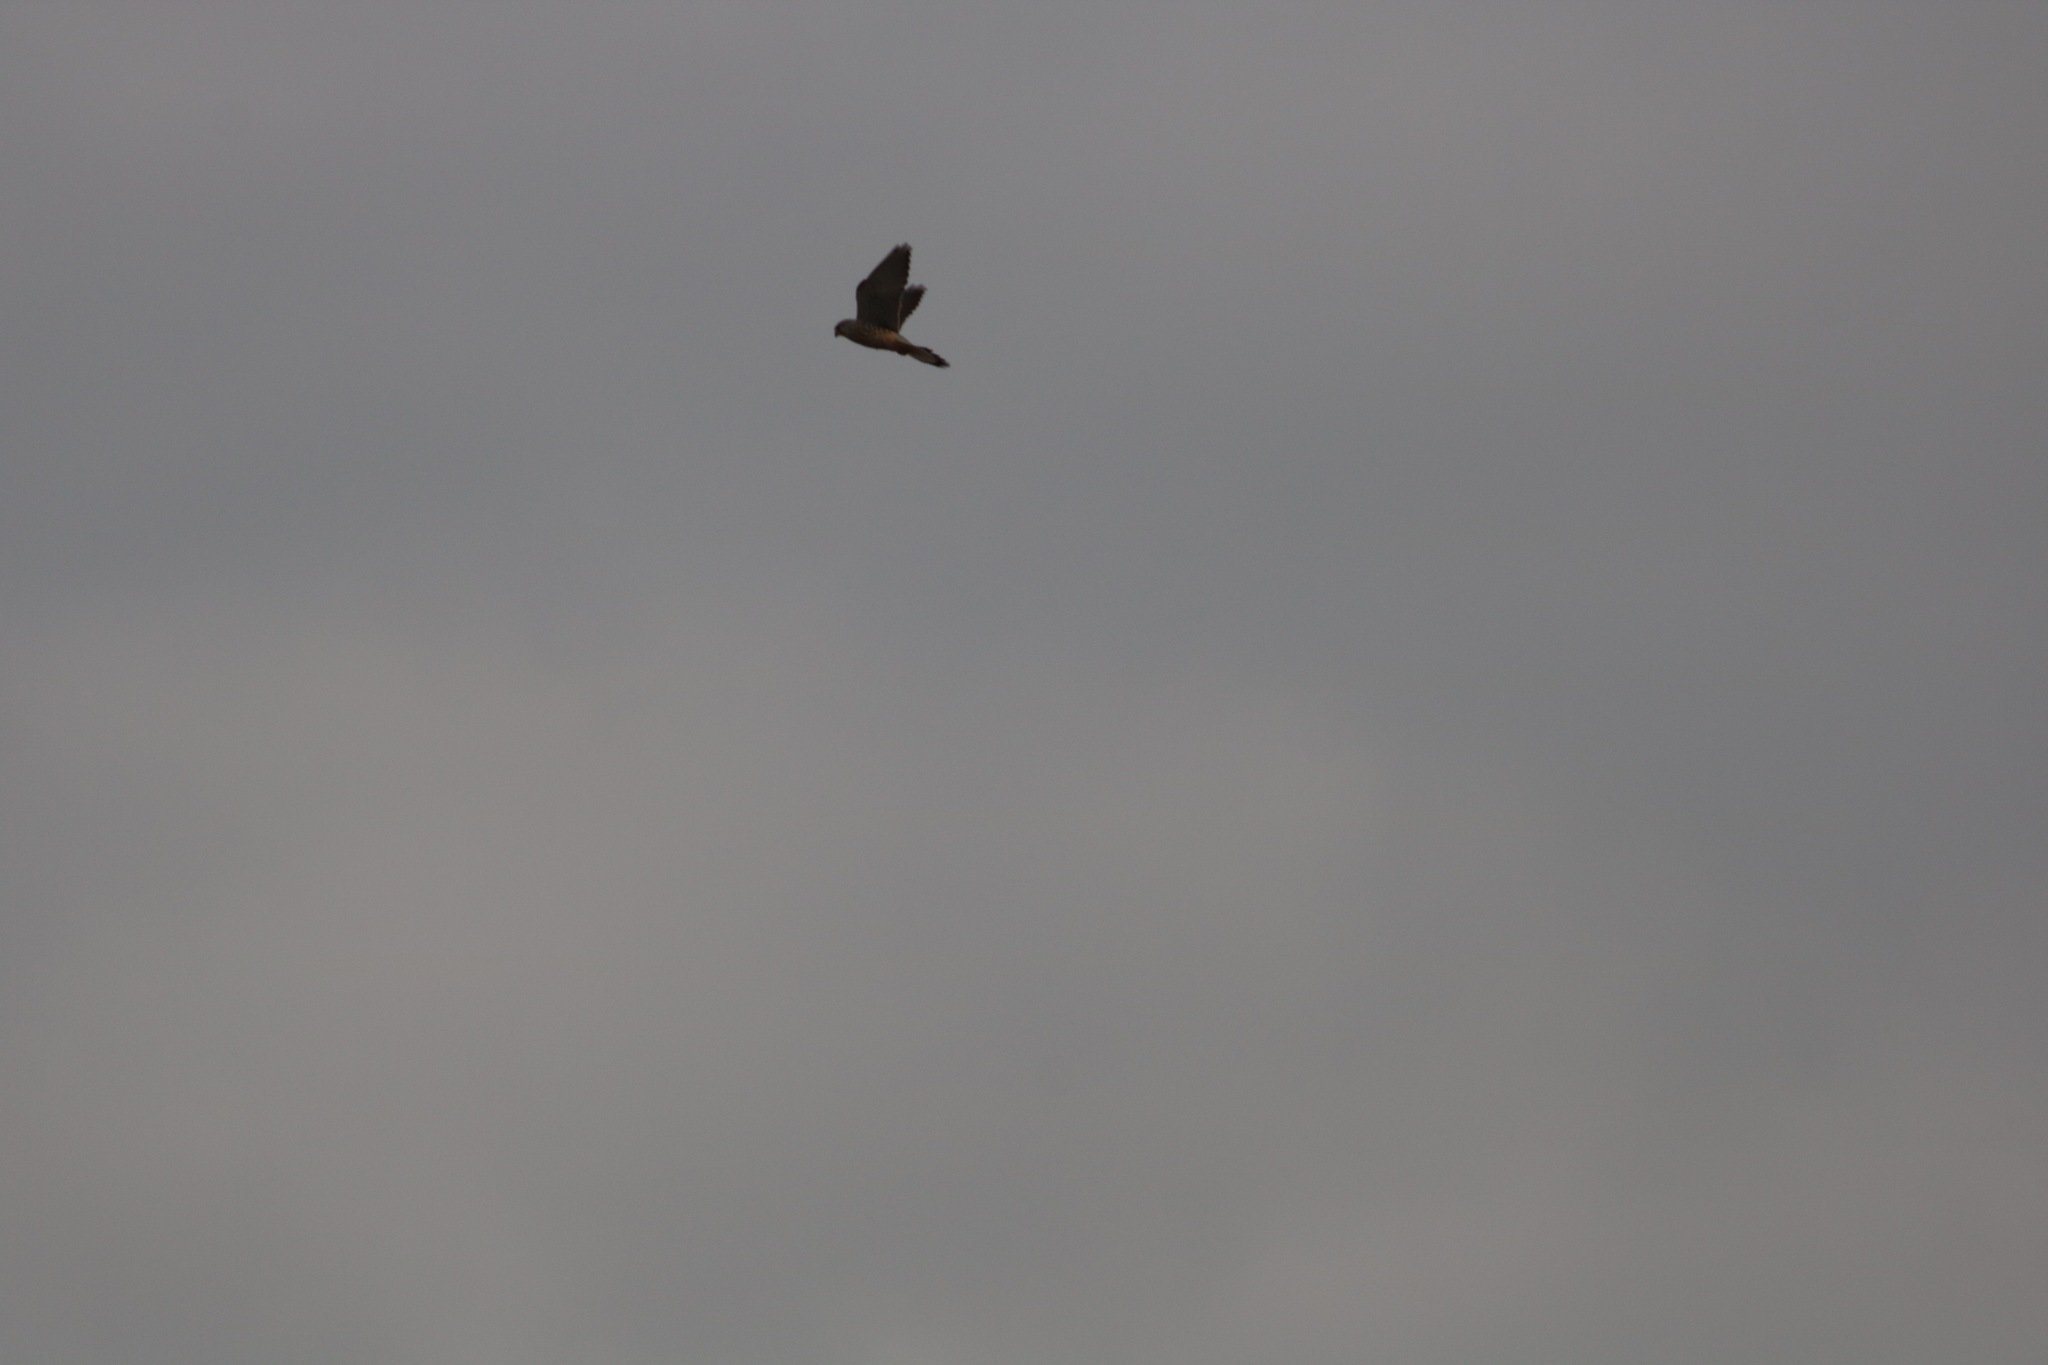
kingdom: Animalia
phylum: Chordata
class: Aves
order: Falconiformes
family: Falconidae
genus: Falco
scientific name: Falco tinnunculus
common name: Common kestrel
